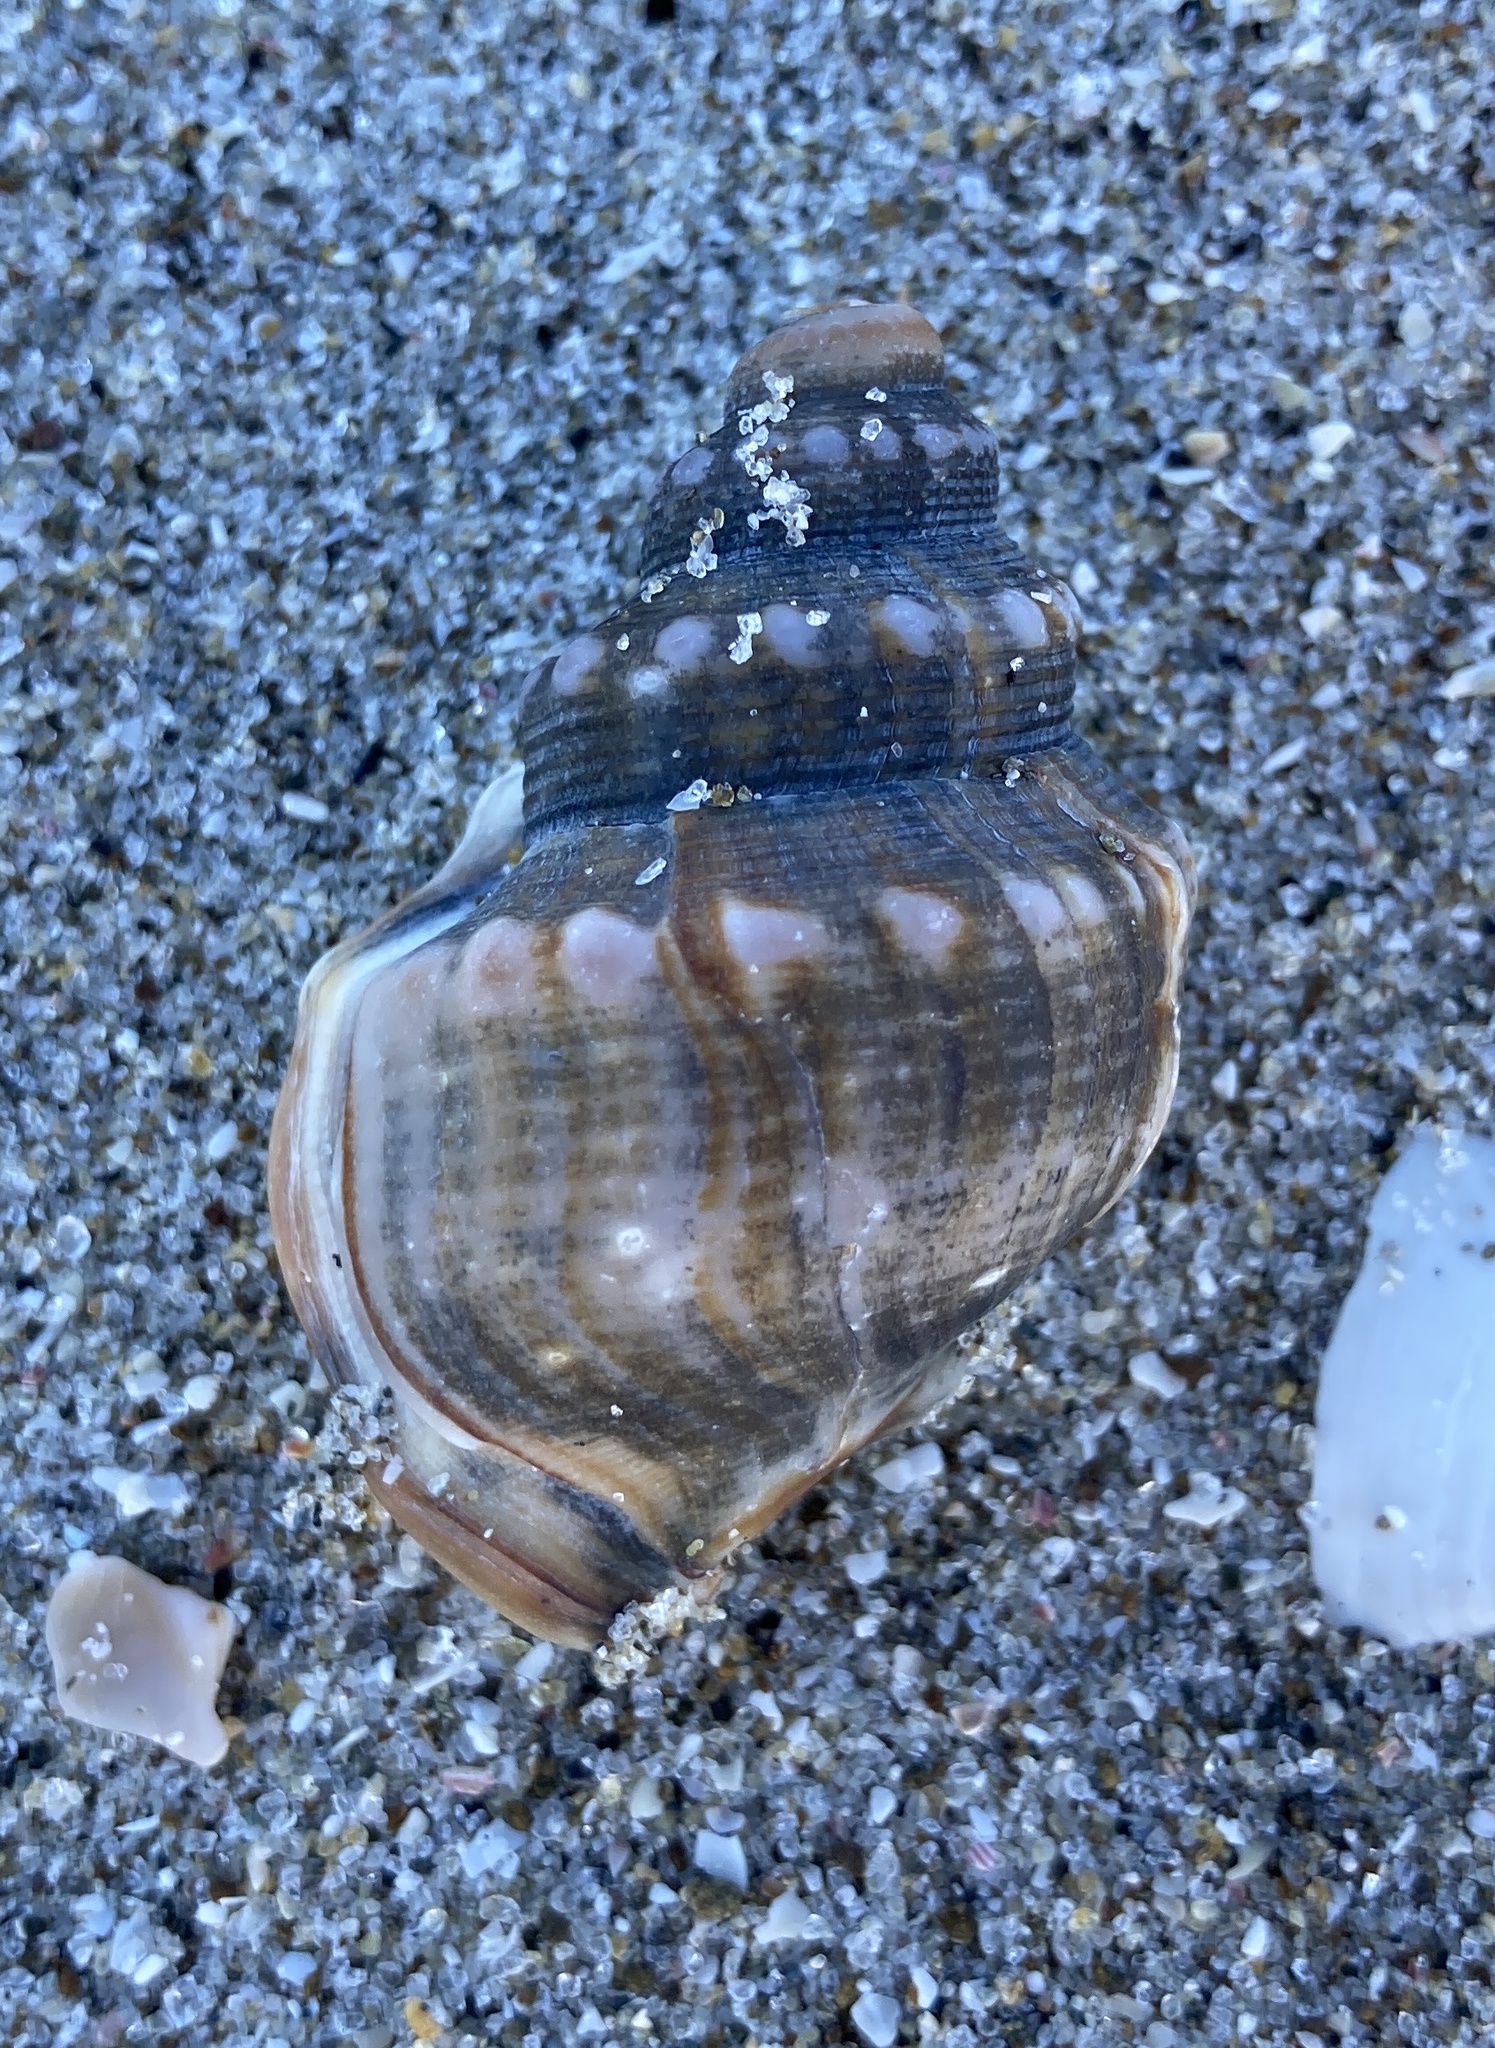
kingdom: Animalia
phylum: Mollusca
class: Gastropoda
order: Littorinimorpha
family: Struthiolariidae
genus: Struthiolaria
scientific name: Struthiolaria papulosa
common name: Large ostrich foot
